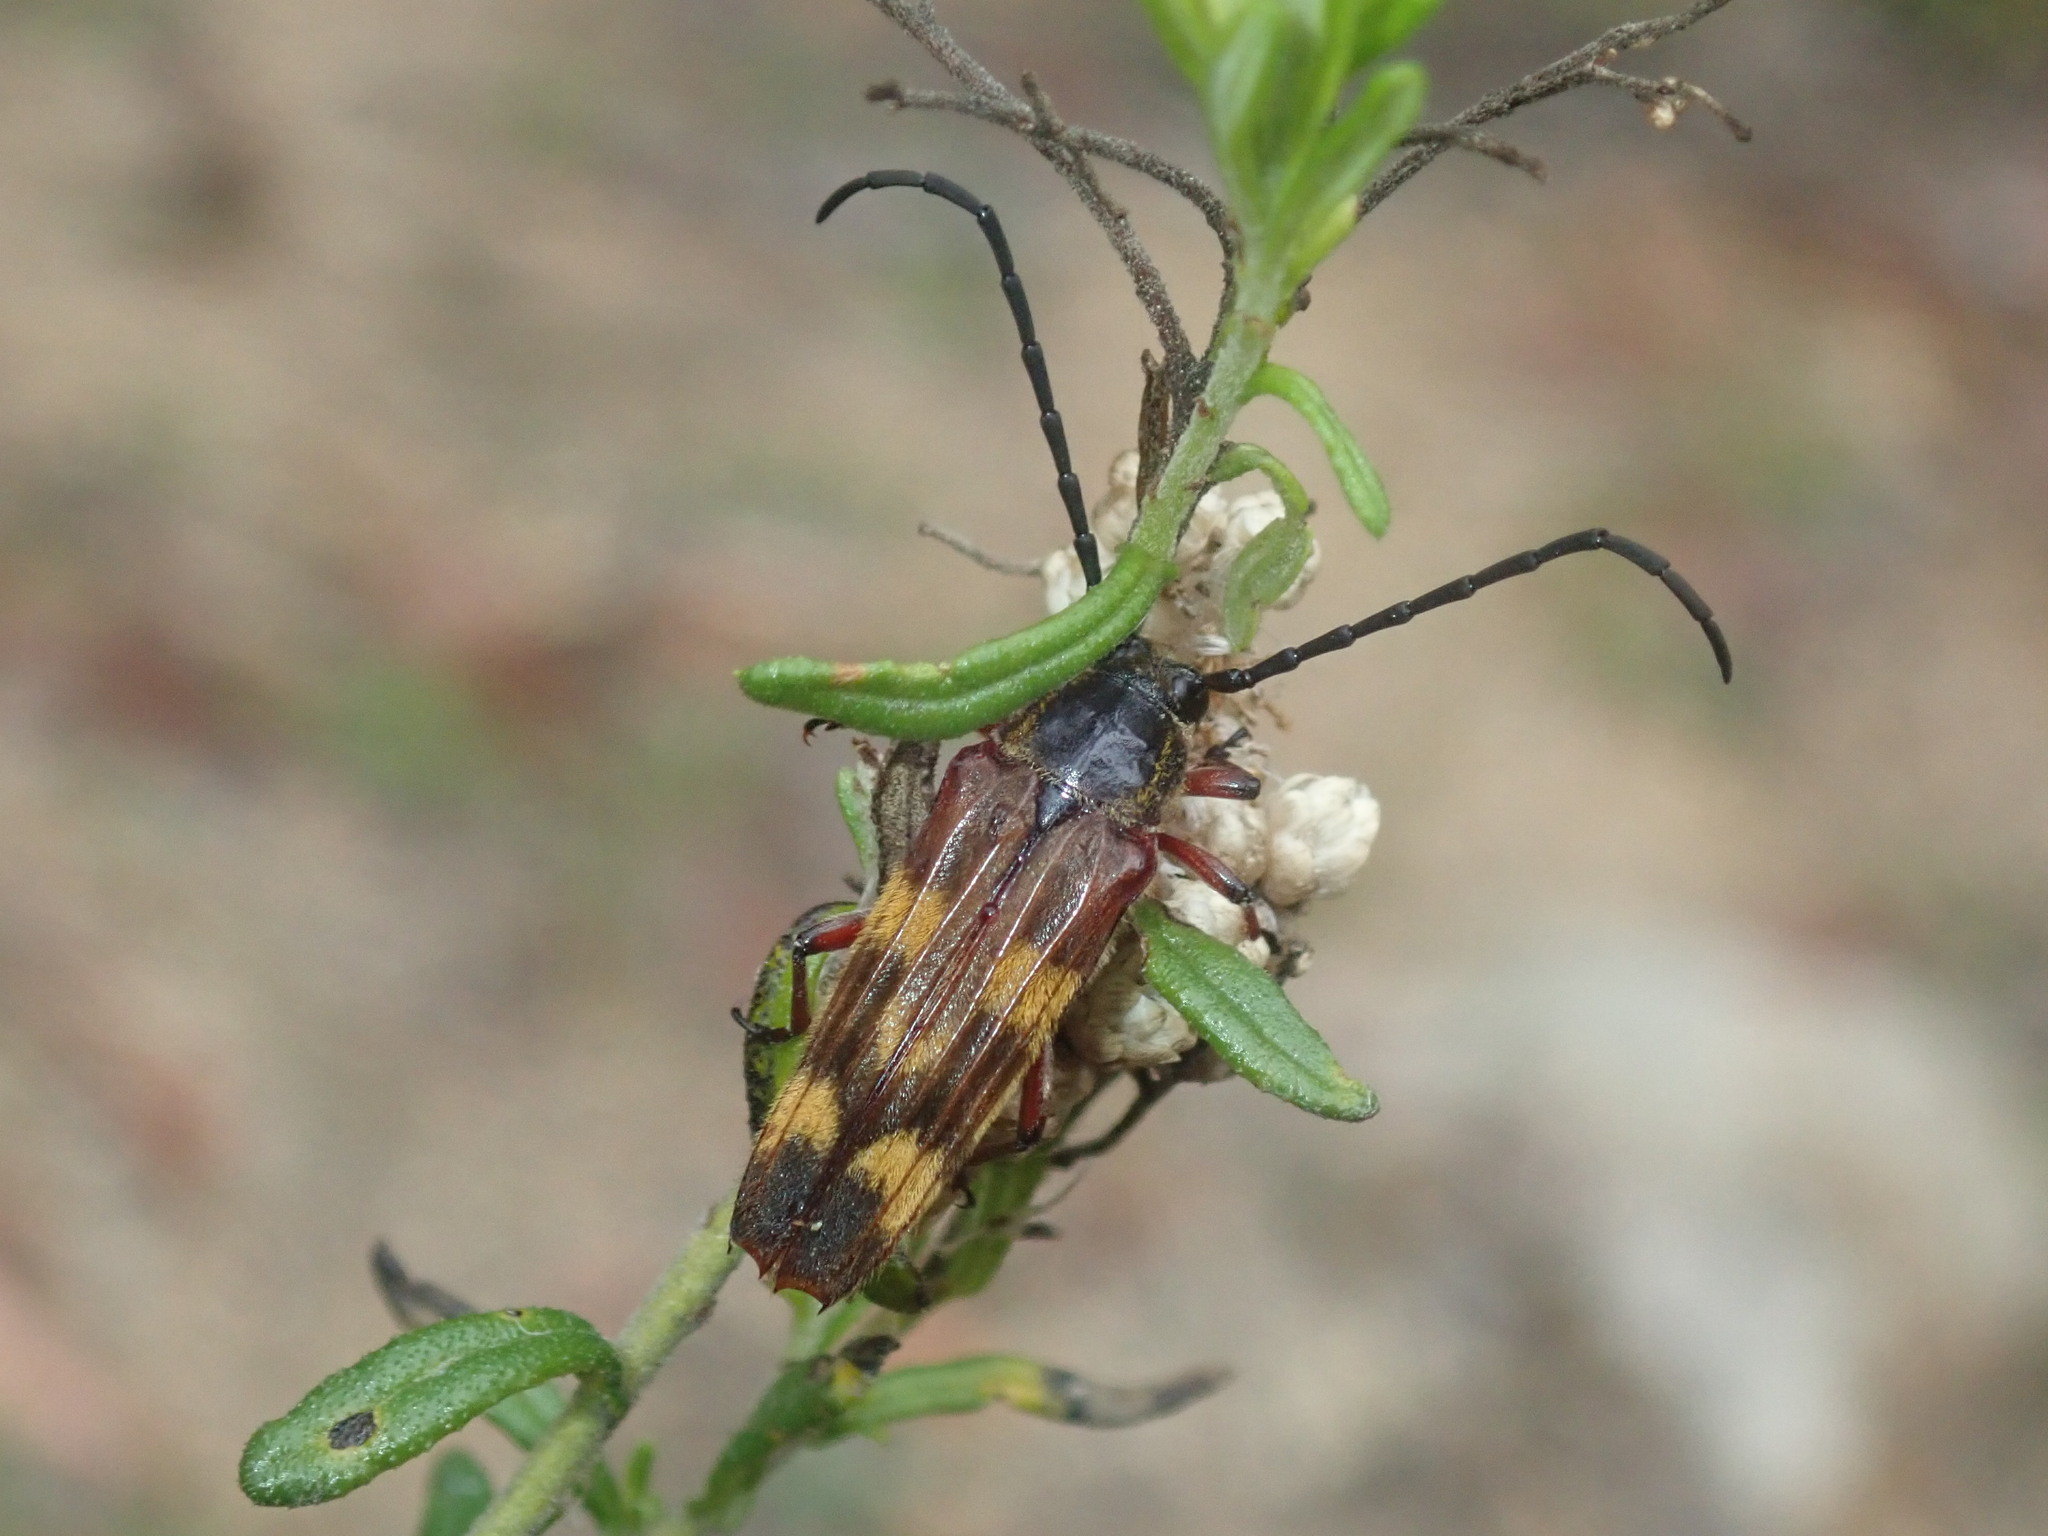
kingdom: Animalia
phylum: Arthropoda
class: Insecta
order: Coleoptera
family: Cerambycidae
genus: Tragocerus
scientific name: Tragocerus fasciatus
